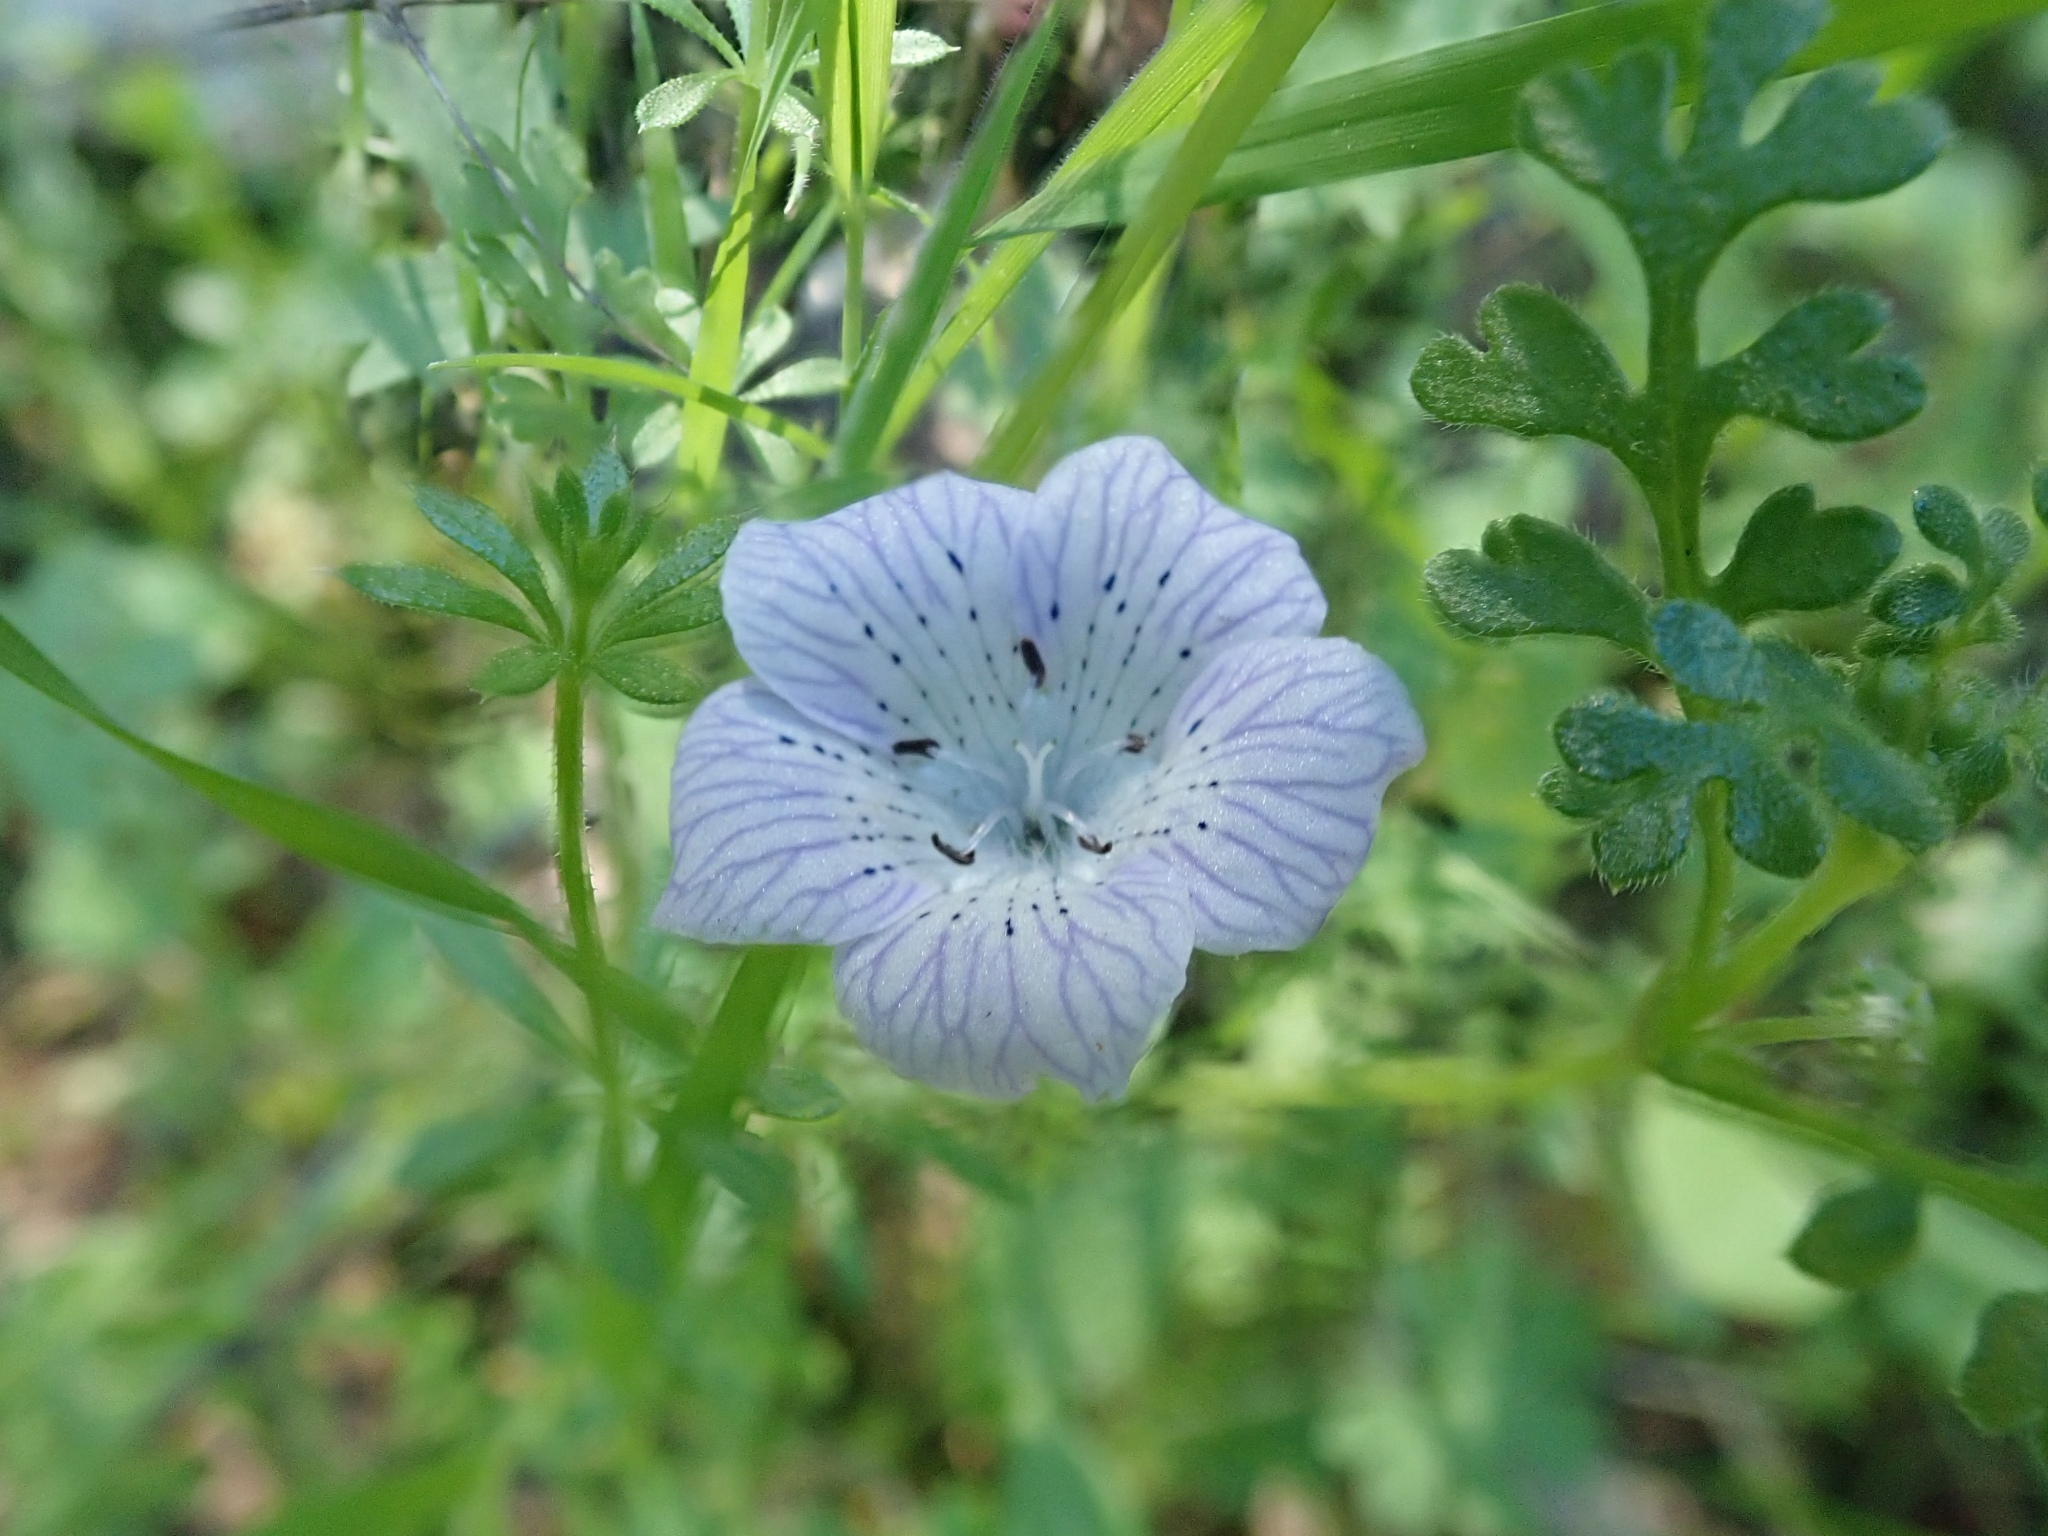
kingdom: Plantae
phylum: Tracheophyta
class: Magnoliopsida
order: Boraginales
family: Hydrophyllaceae
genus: Nemophila
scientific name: Nemophila menziesii
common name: Baby's-blue-eyes
